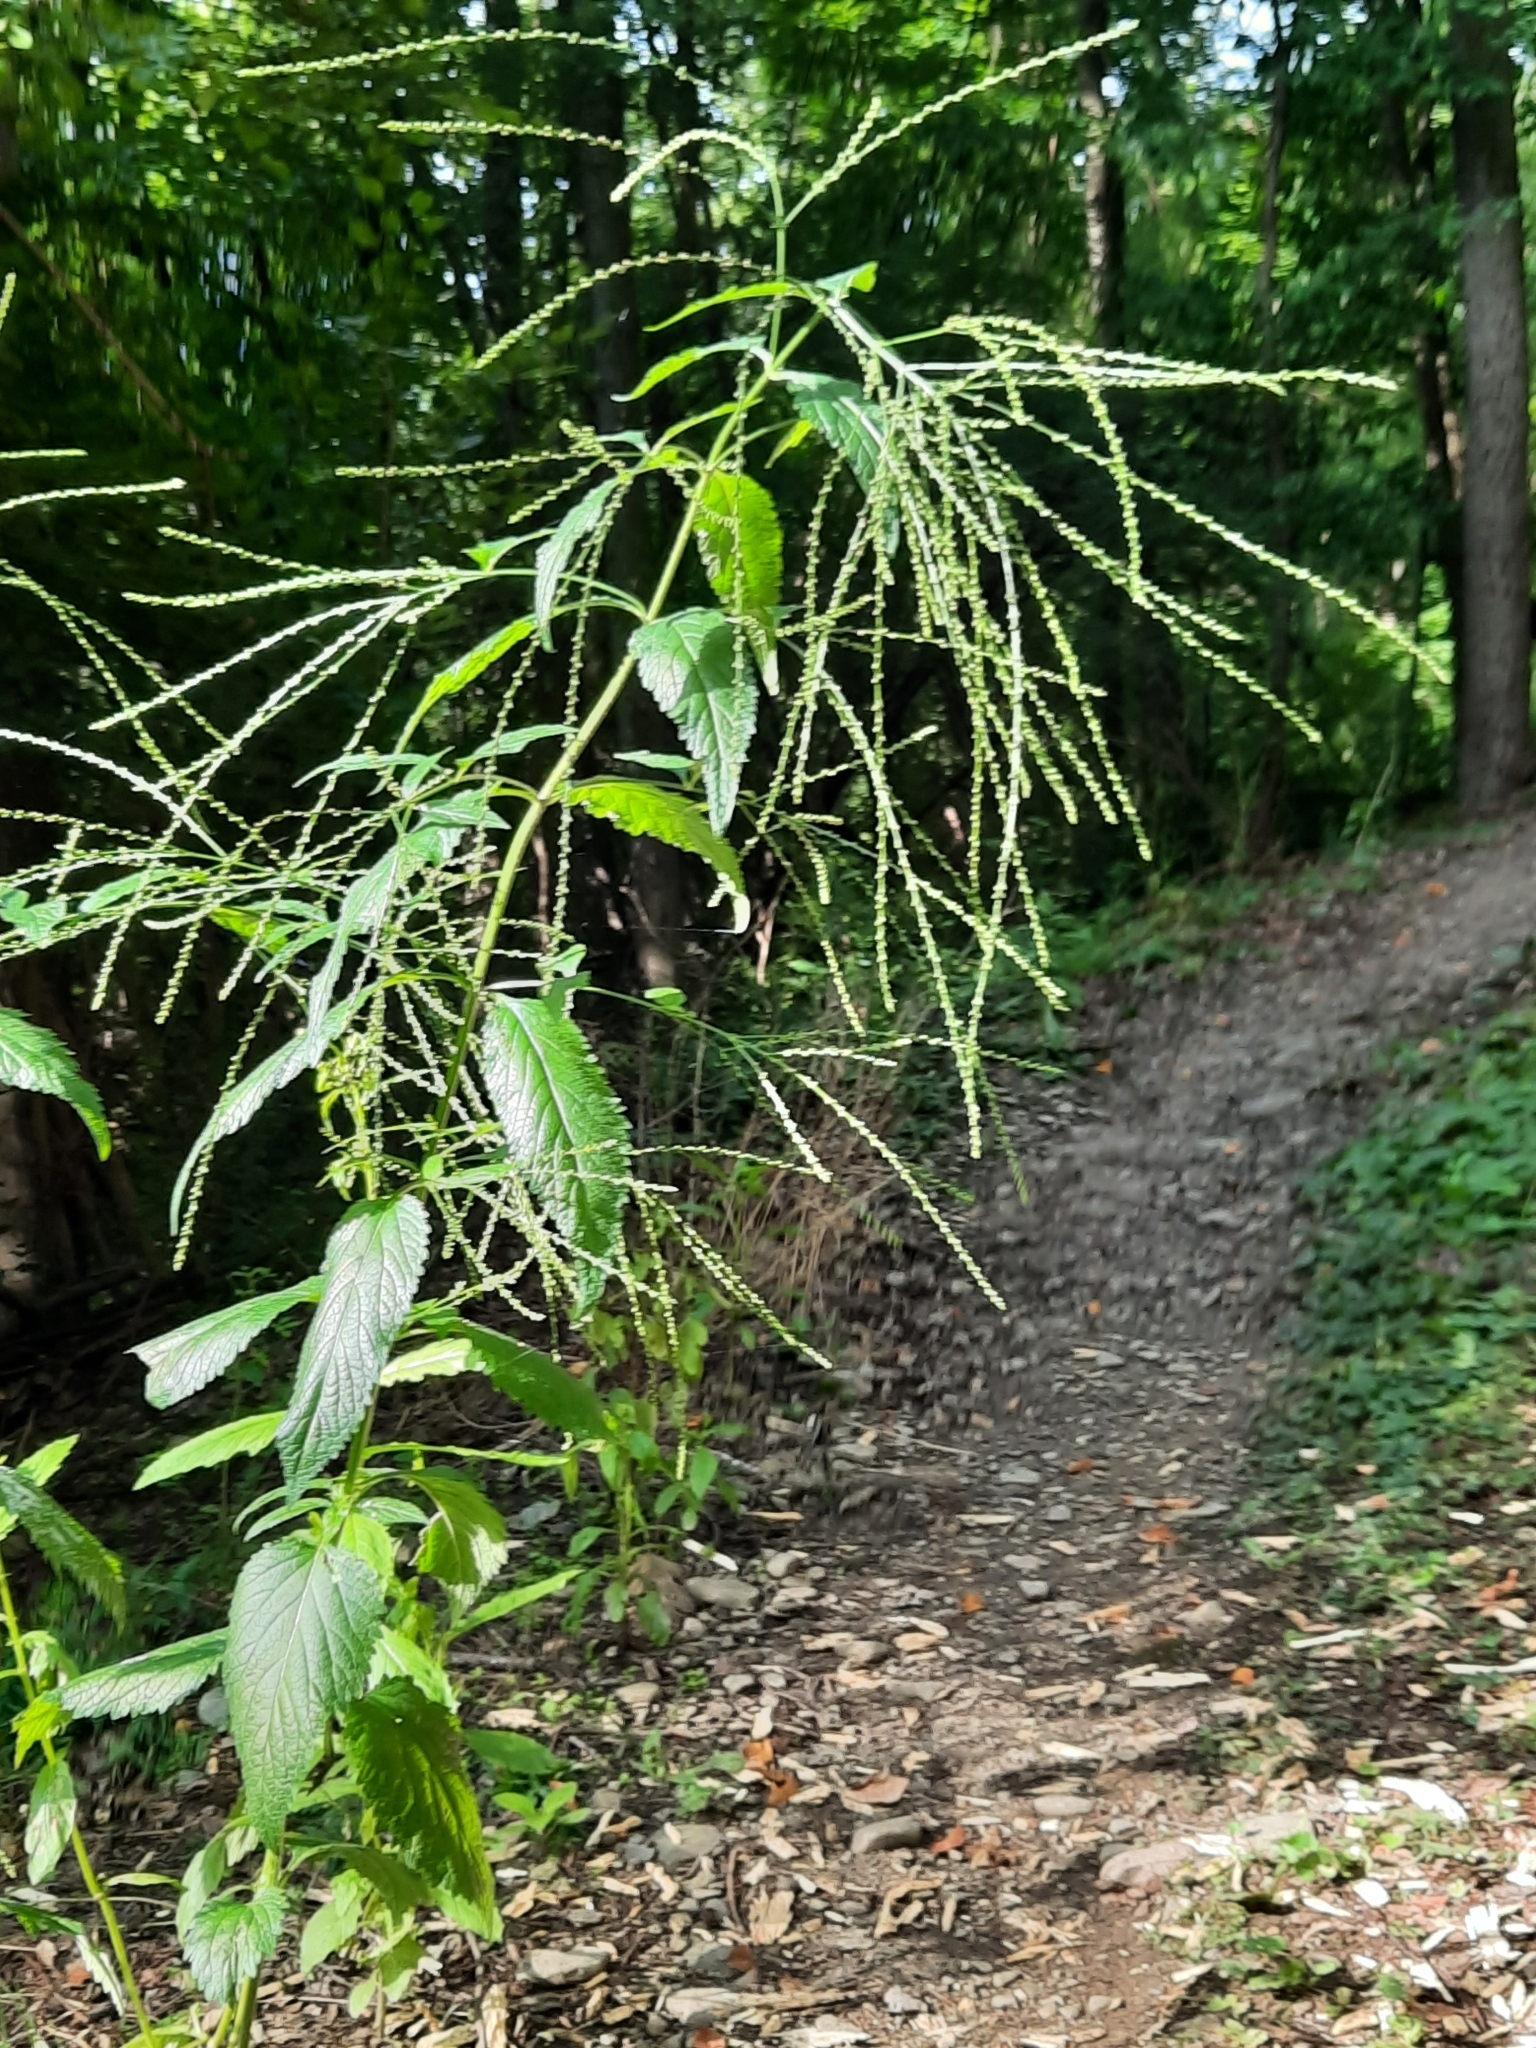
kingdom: Plantae
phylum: Tracheophyta
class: Magnoliopsida
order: Lamiales
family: Verbenaceae
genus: Verbena
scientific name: Verbena urticifolia
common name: Nettle-leaved vervain
